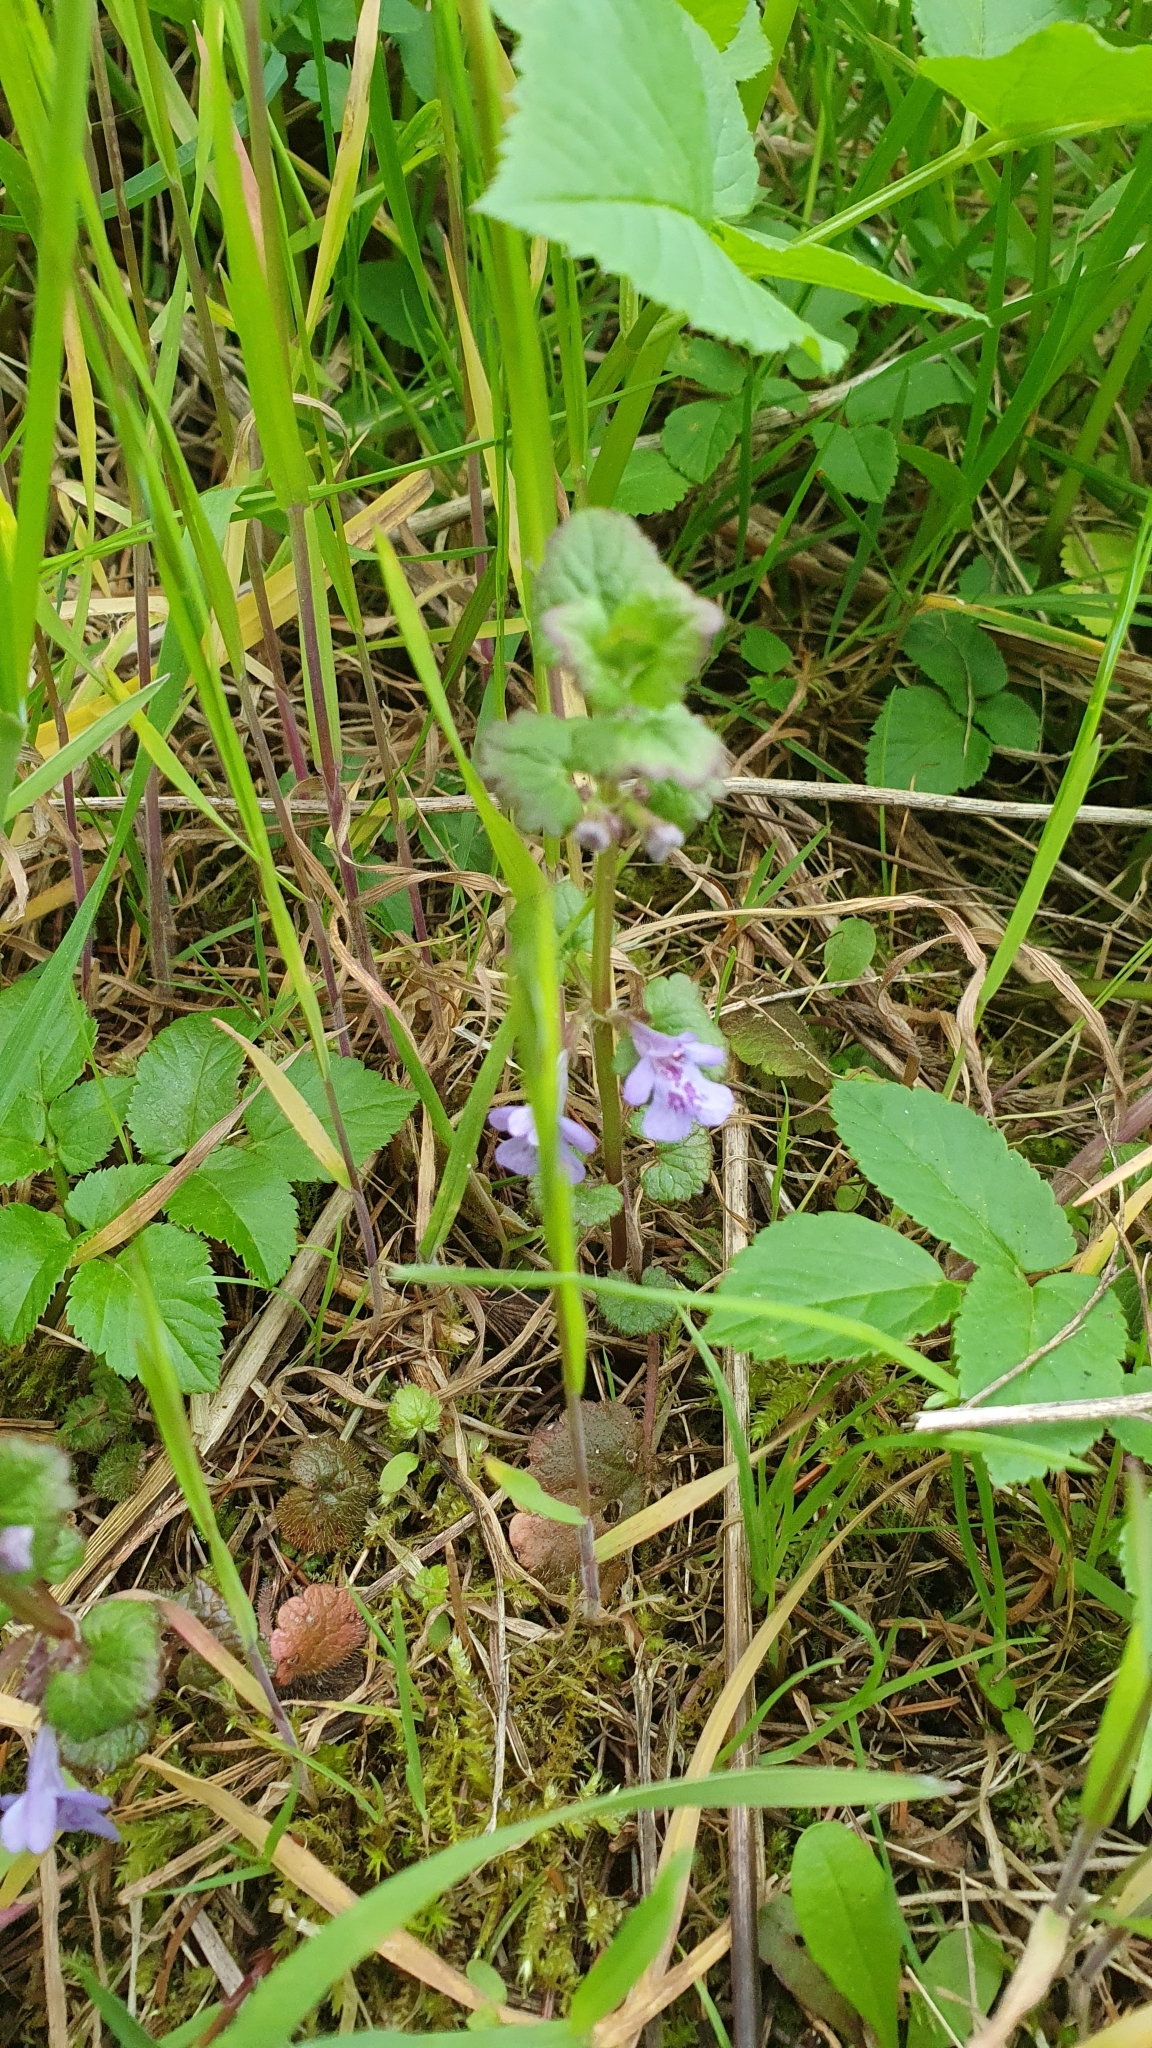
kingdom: Plantae
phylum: Tracheophyta
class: Magnoliopsida
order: Lamiales
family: Lamiaceae
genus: Glechoma
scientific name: Glechoma hederacea
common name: Ground ivy
